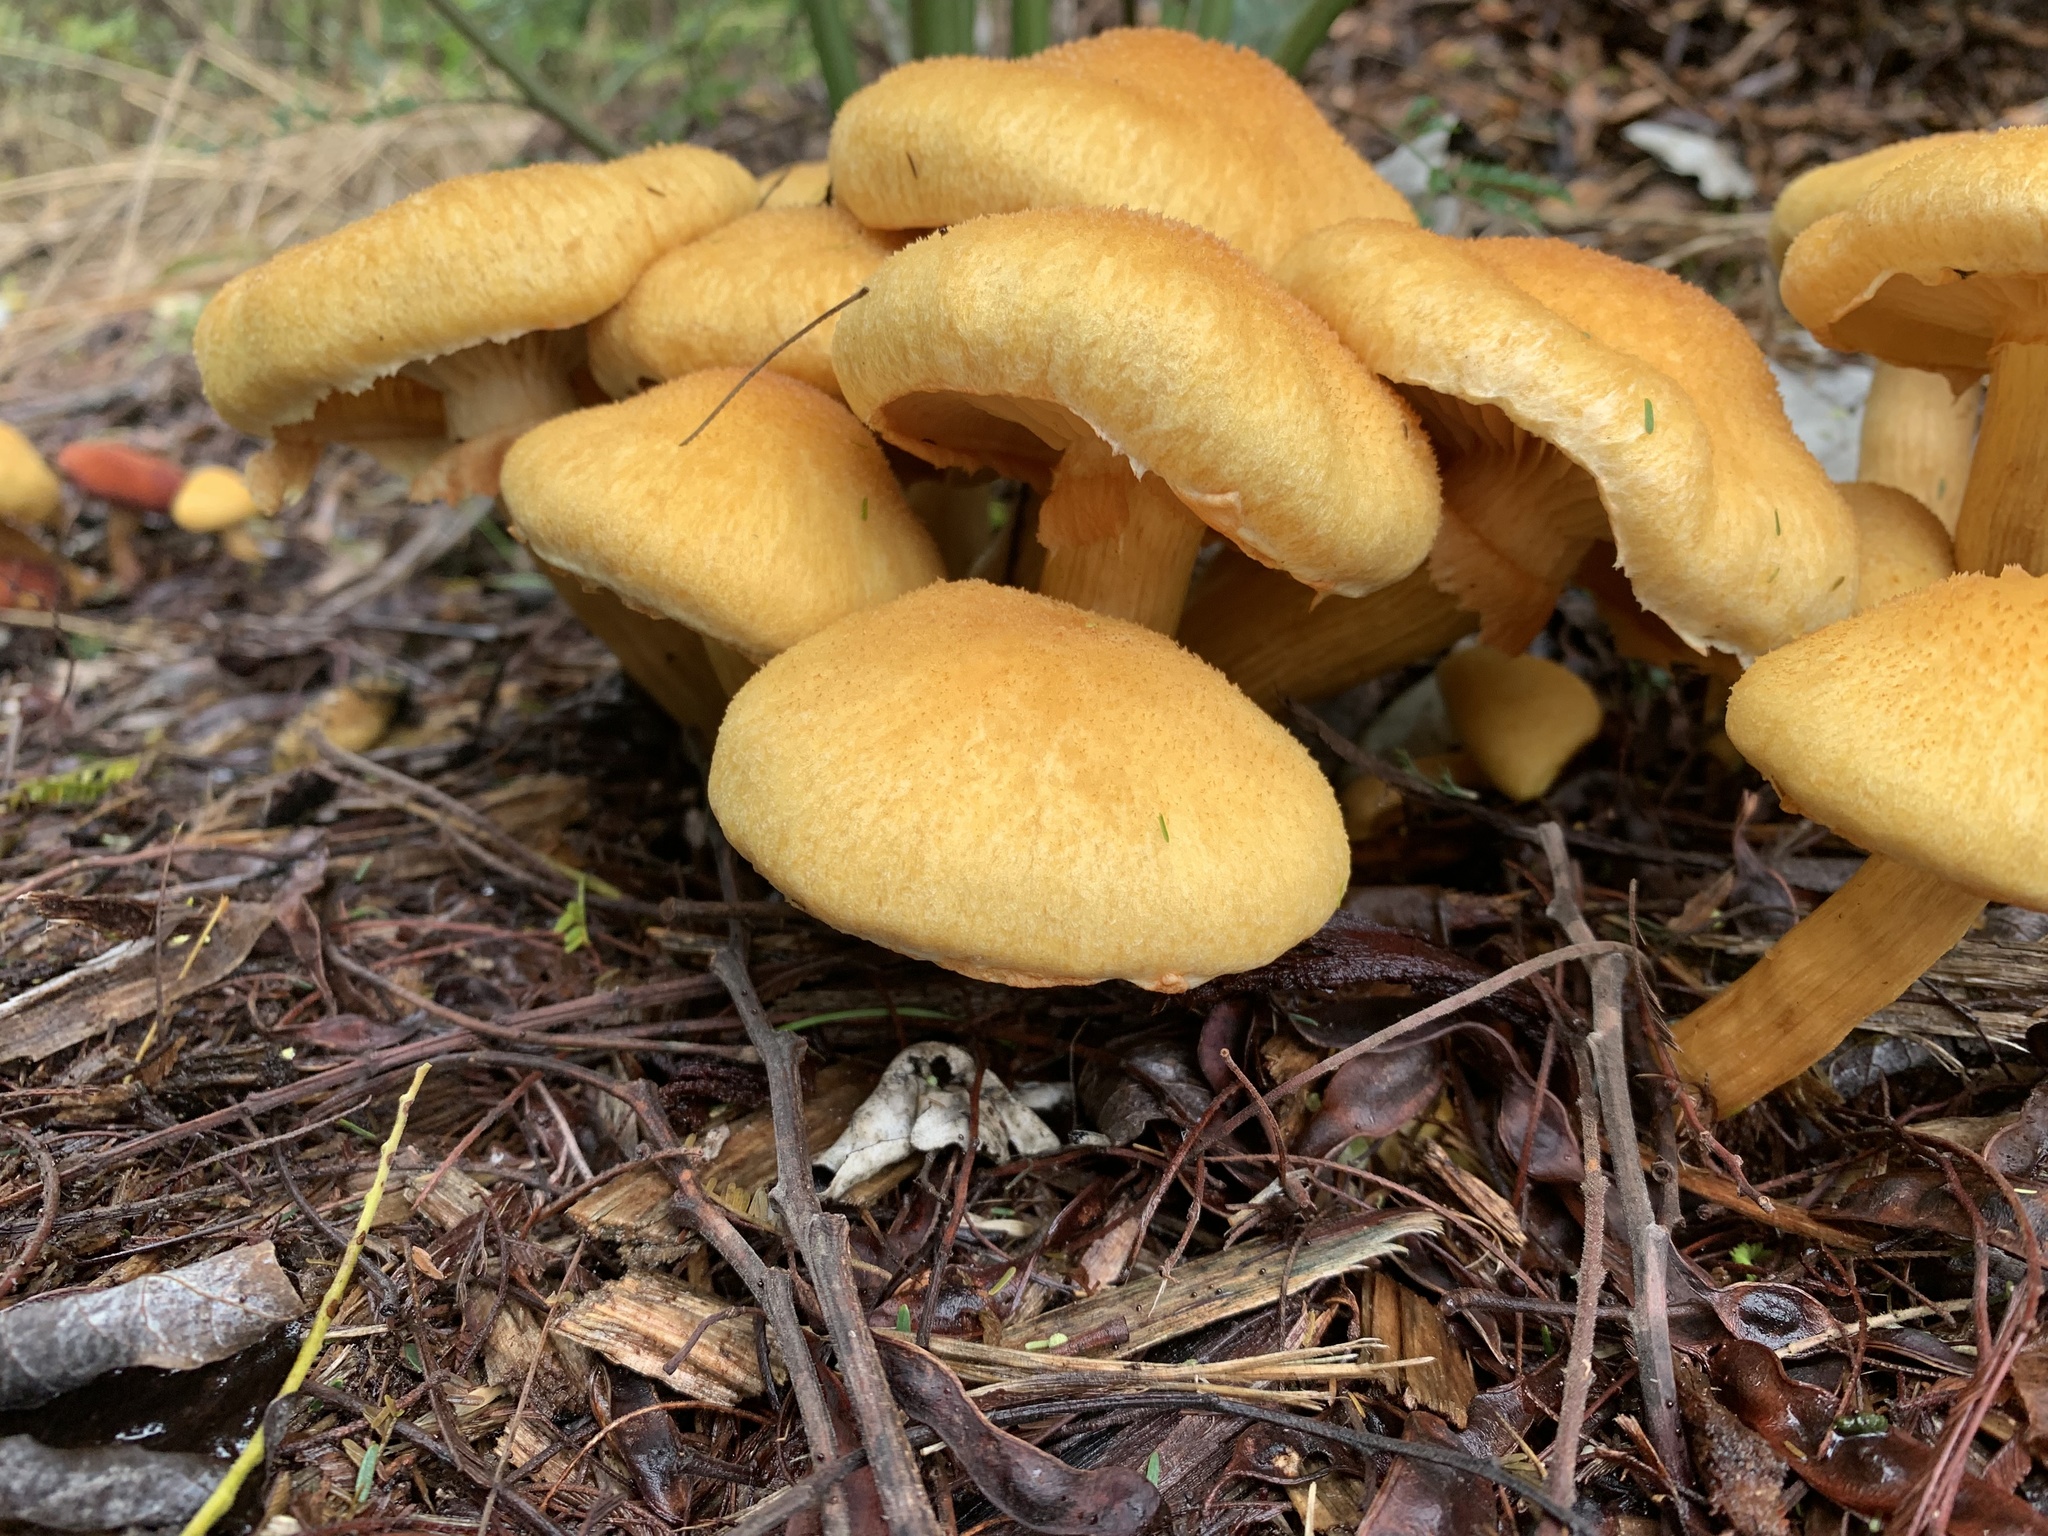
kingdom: Fungi
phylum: Basidiomycota
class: Agaricomycetes
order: Agaricales
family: Hymenogastraceae
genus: Gymnopilus
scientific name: Gymnopilus junonius
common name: Spectacular rustgill
